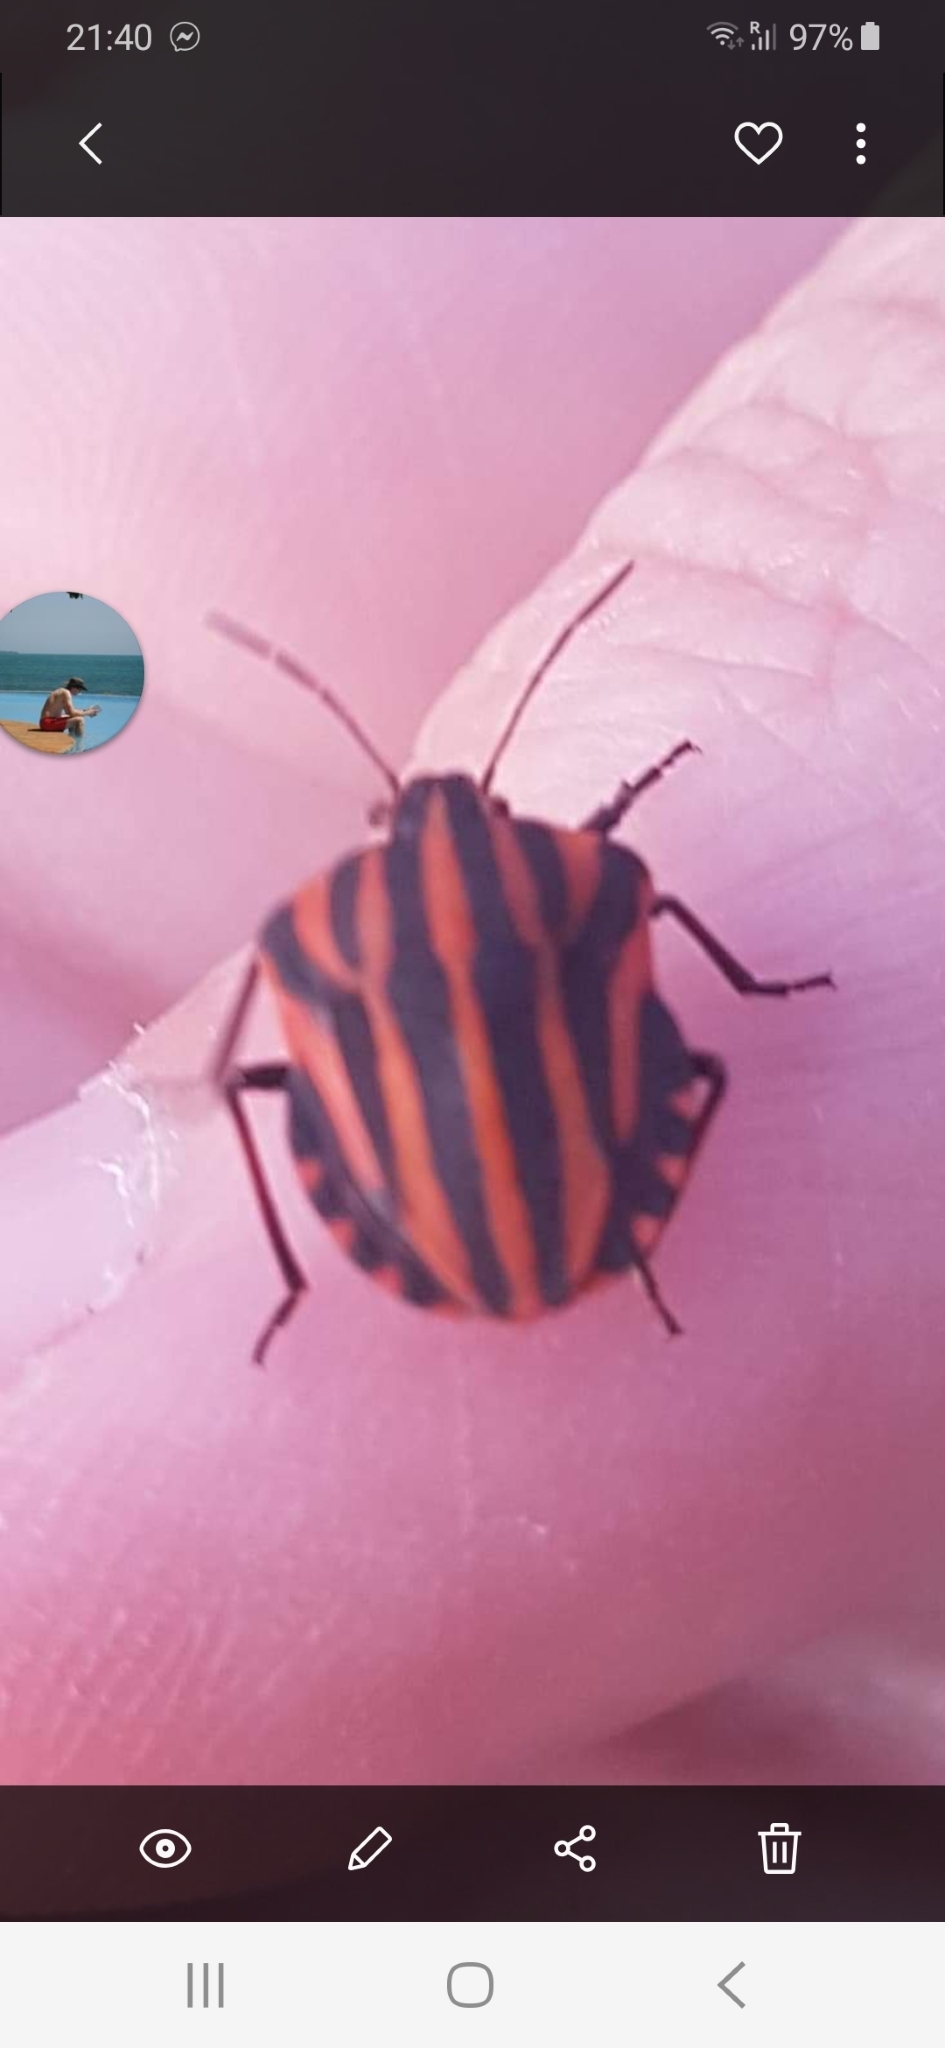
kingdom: Animalia
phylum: Arthropoda
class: Insecta
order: Hemiptera
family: Pentatomidae
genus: Graphosoma
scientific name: Graphosoma italicum
